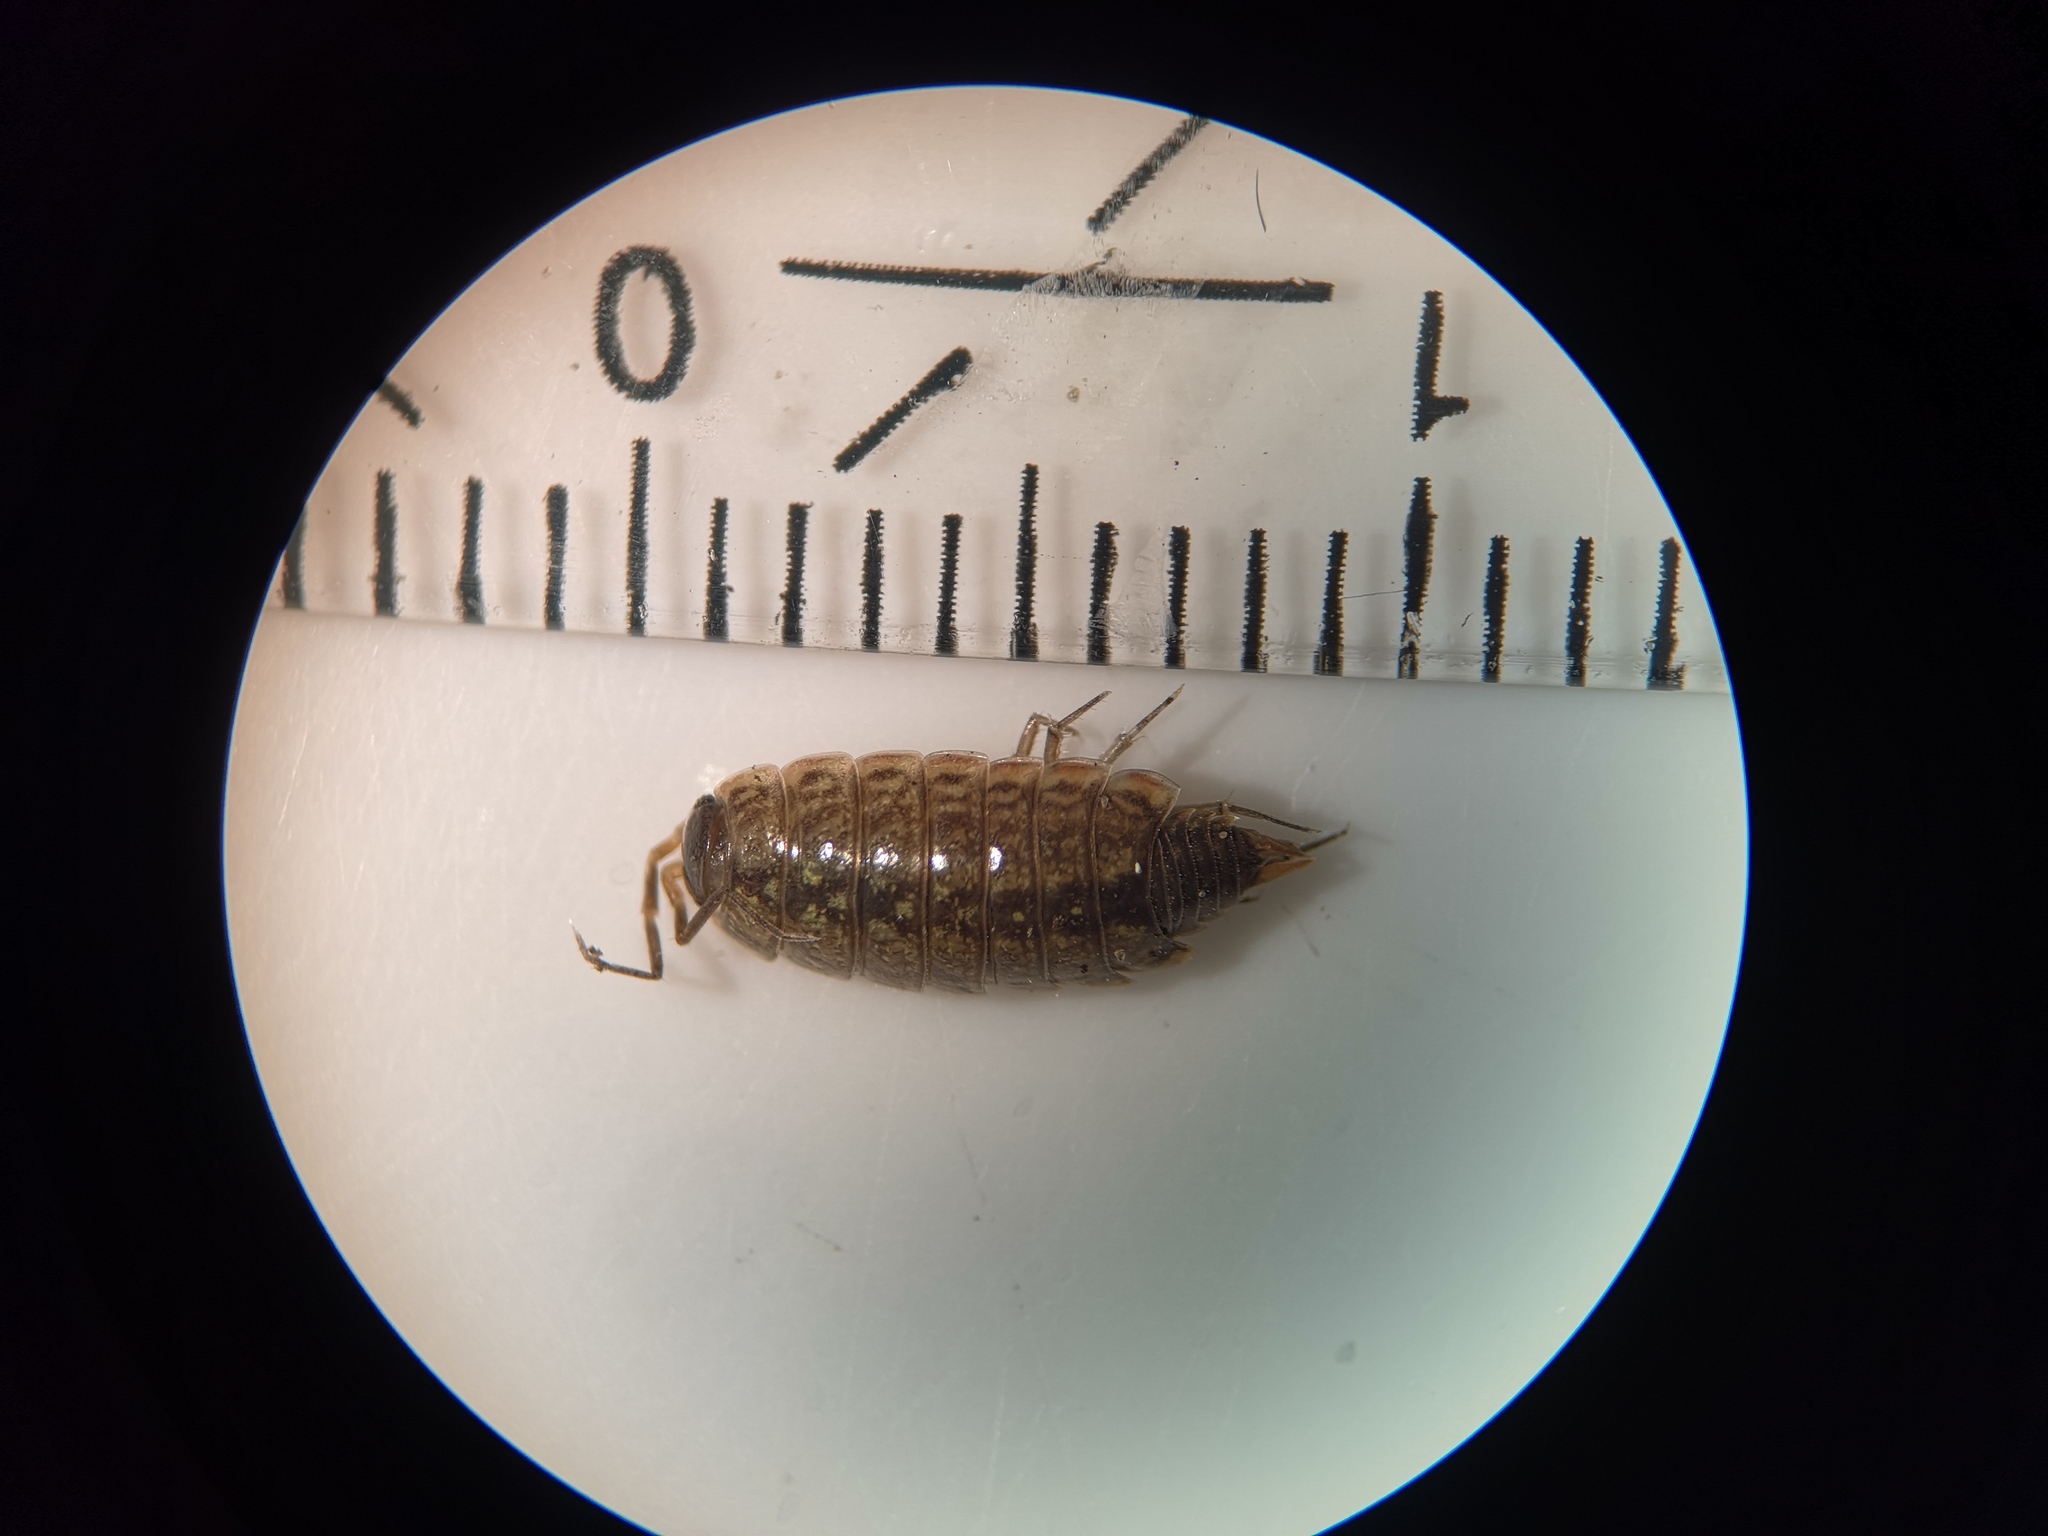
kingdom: Animalia
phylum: Arthropoda
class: Malacostraca
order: Isopoda
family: Philosciidae
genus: Philoscia
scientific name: Philoscia muscorum
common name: Common striped woodlouse
